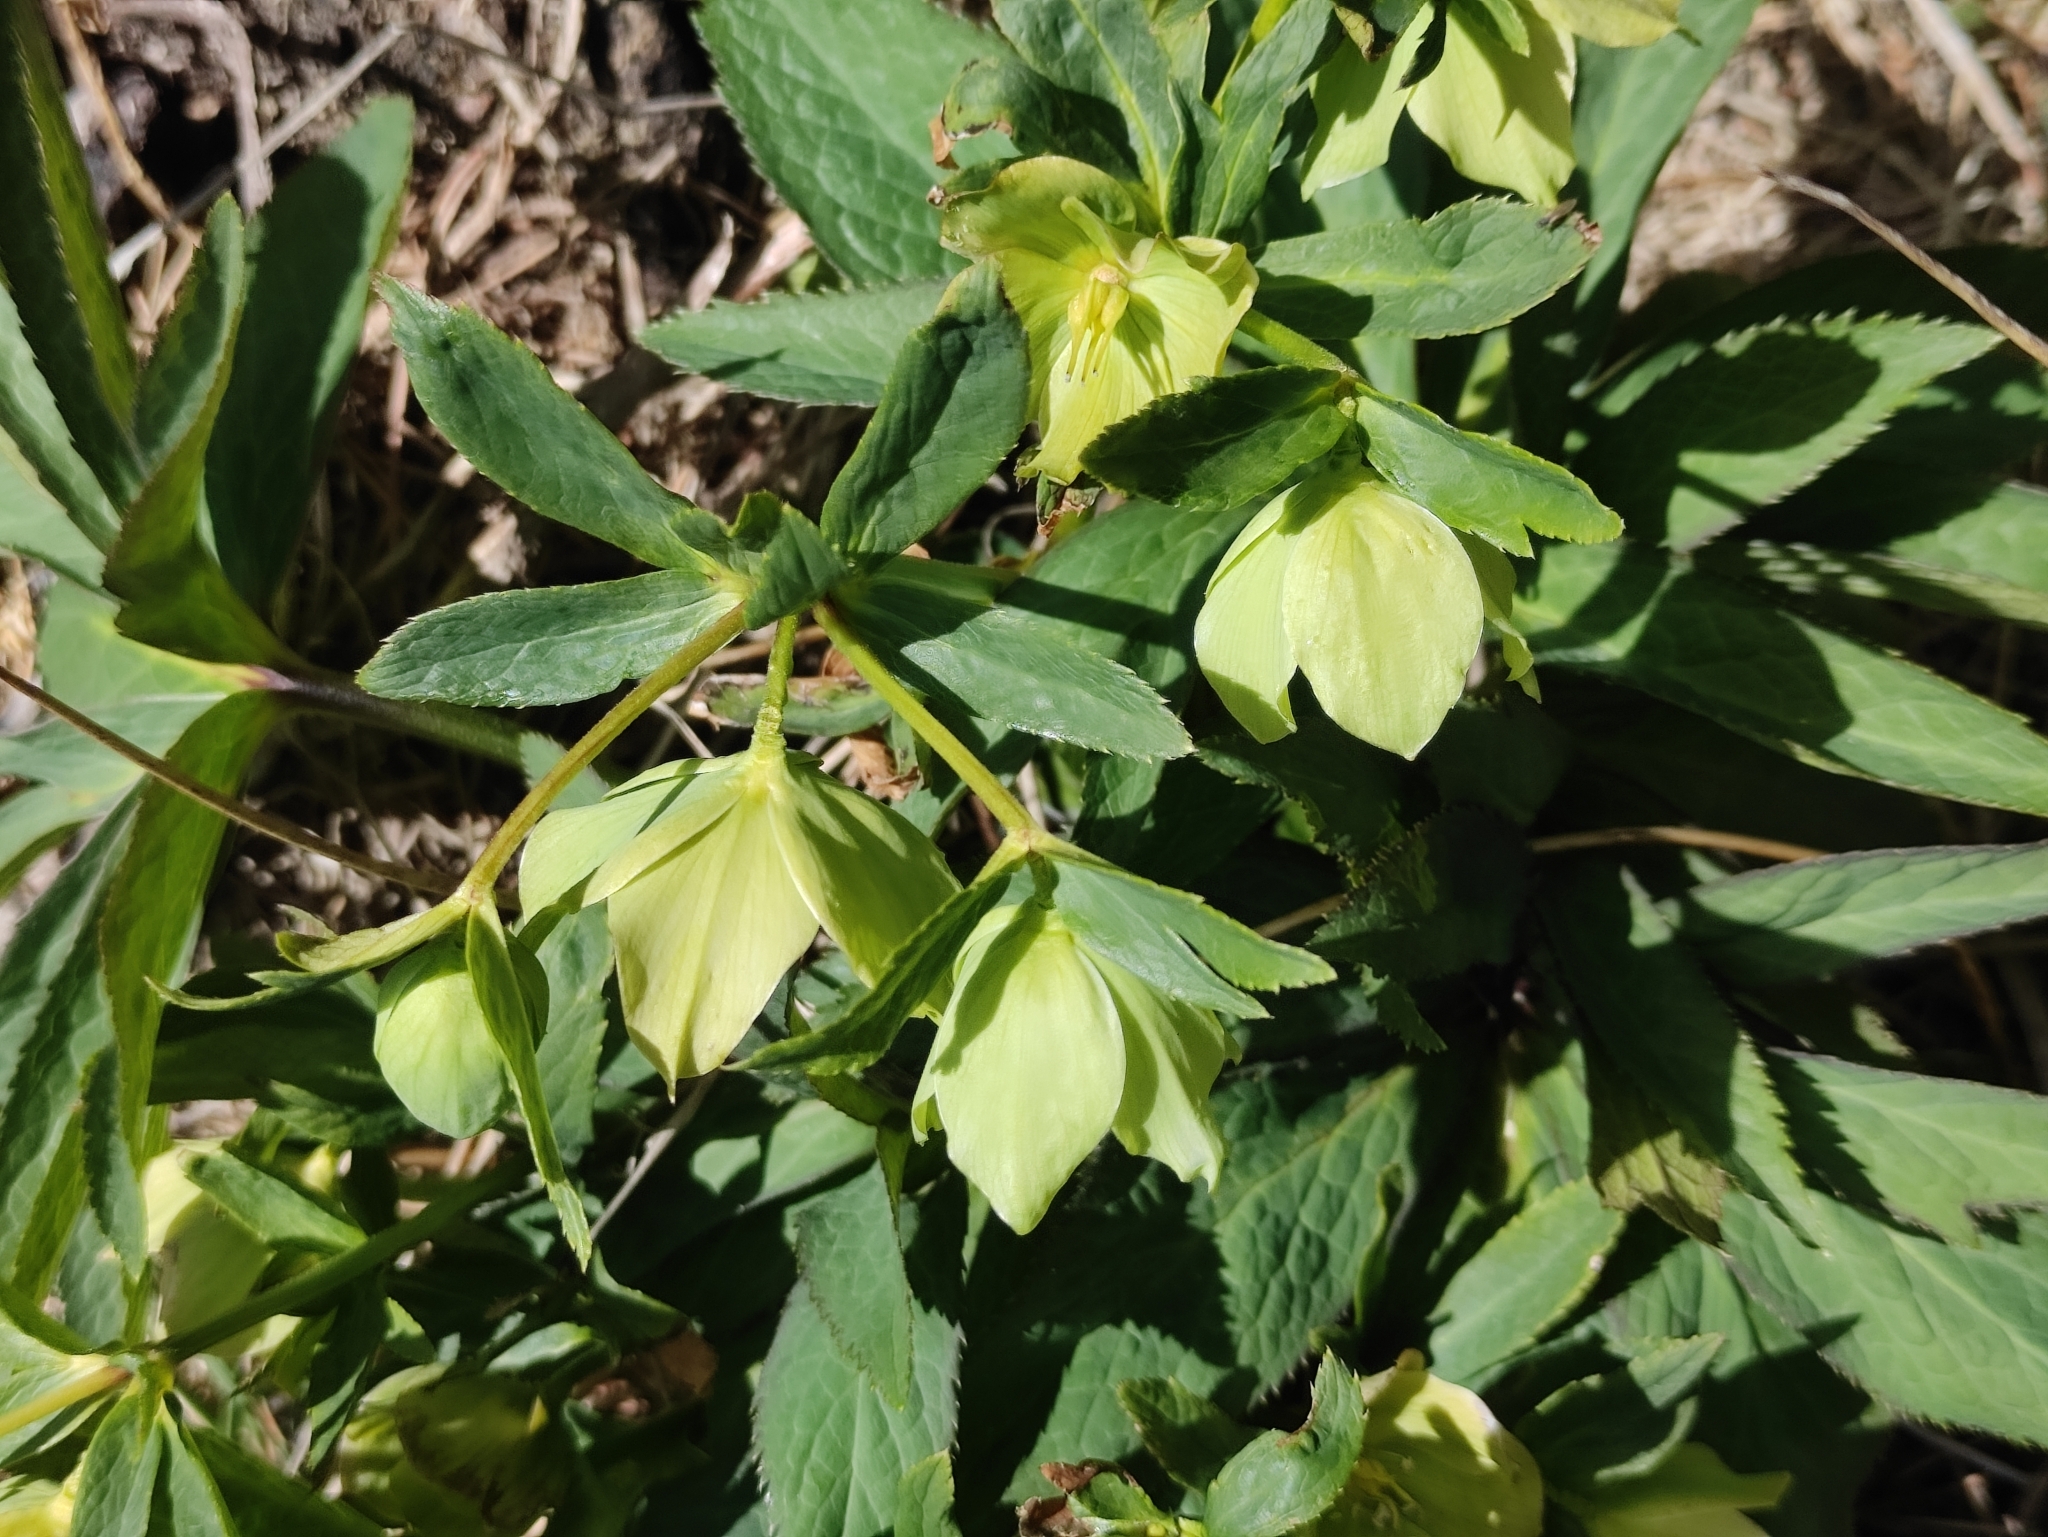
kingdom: Plantae
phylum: Tracheophyta
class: Magnoliopsida
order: Ranunculales
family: Ranunculaceae
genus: Helleborus
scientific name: Helleborus viridis
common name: Green hellebore
